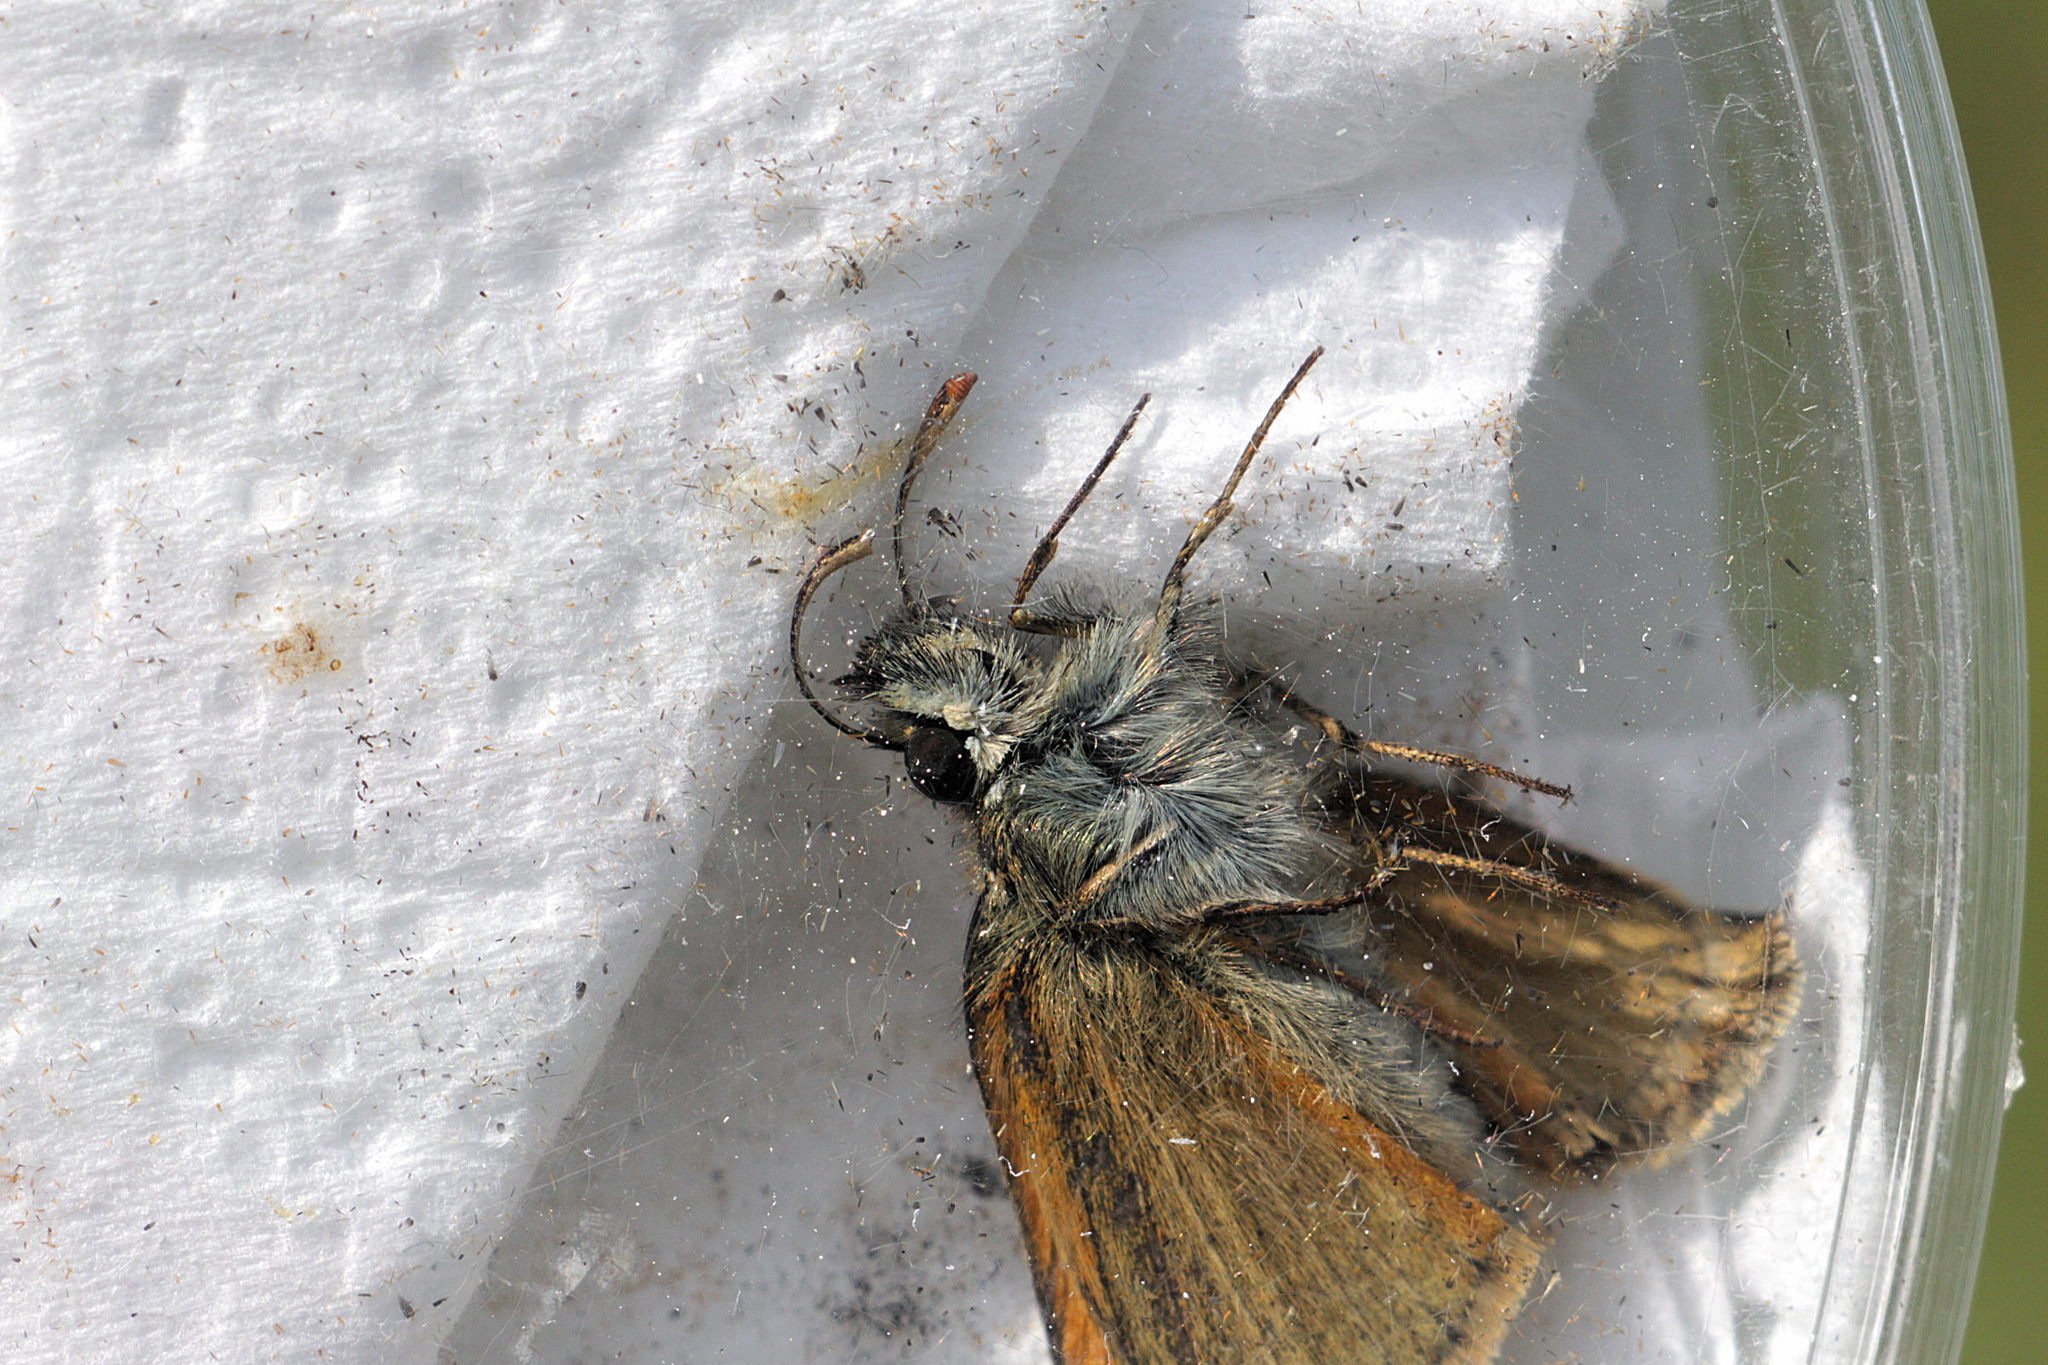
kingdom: Animalia
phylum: Arthropoda
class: Insecta
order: Lepidoptera
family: Hesperiidae
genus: Thymelicus
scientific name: Thymelicus sylvestris
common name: Small skipper
